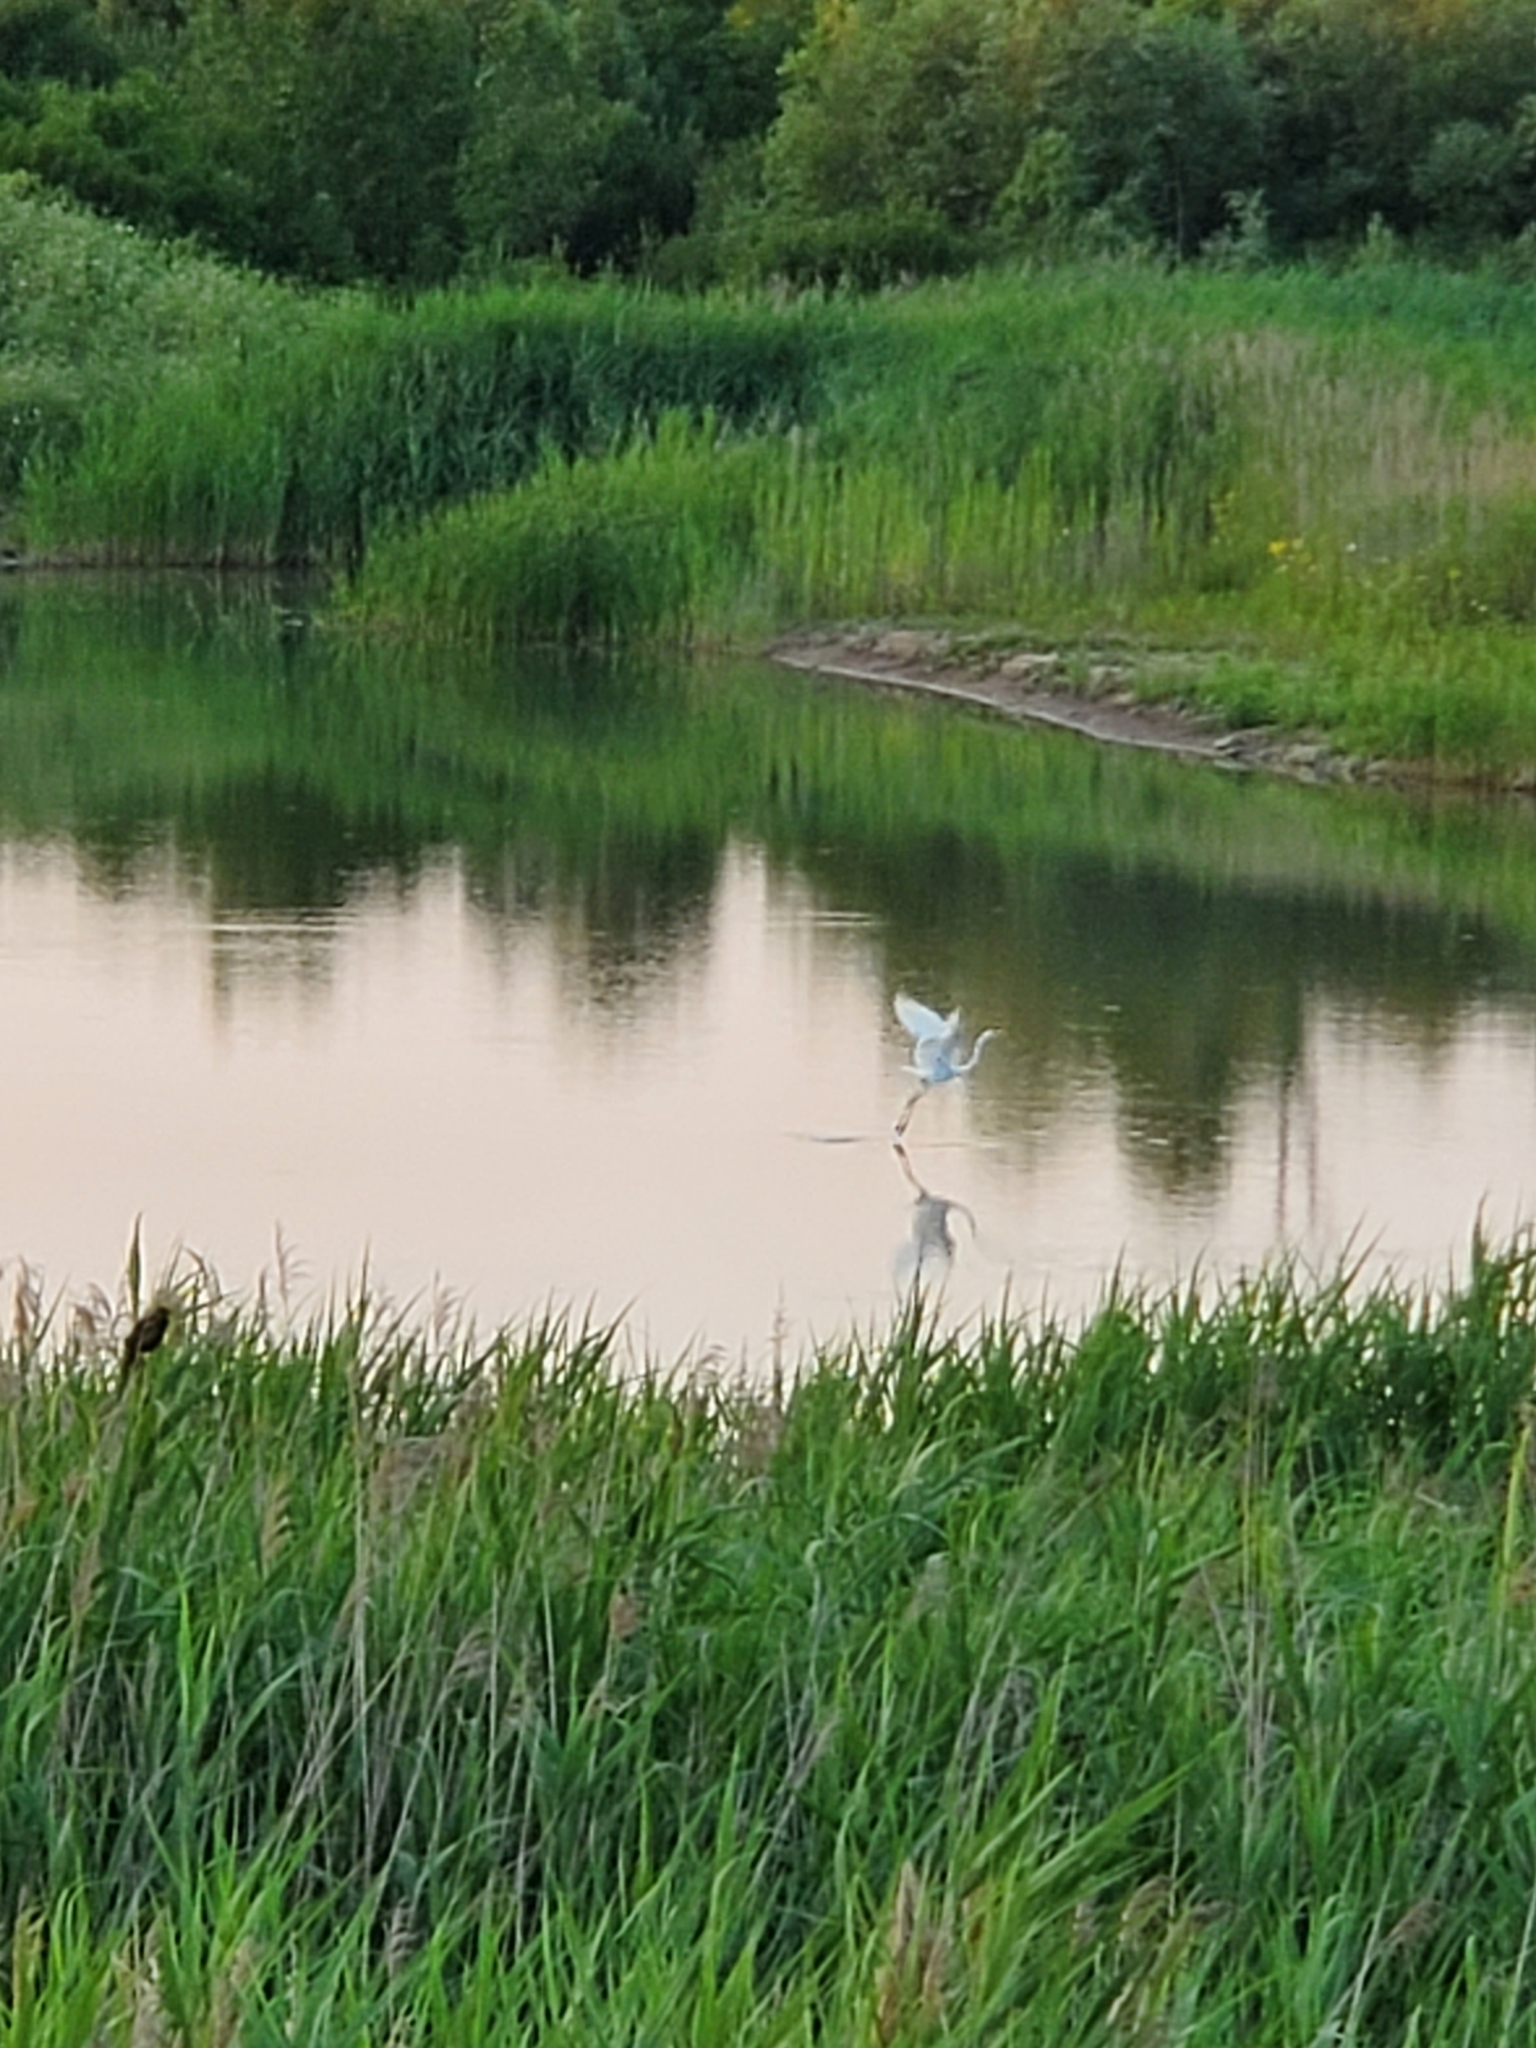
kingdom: Animalia
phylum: Chordata
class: Aves
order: Pelecaniformes
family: Ardeidae
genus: Ardea
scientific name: Ardea alba
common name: Great egret
